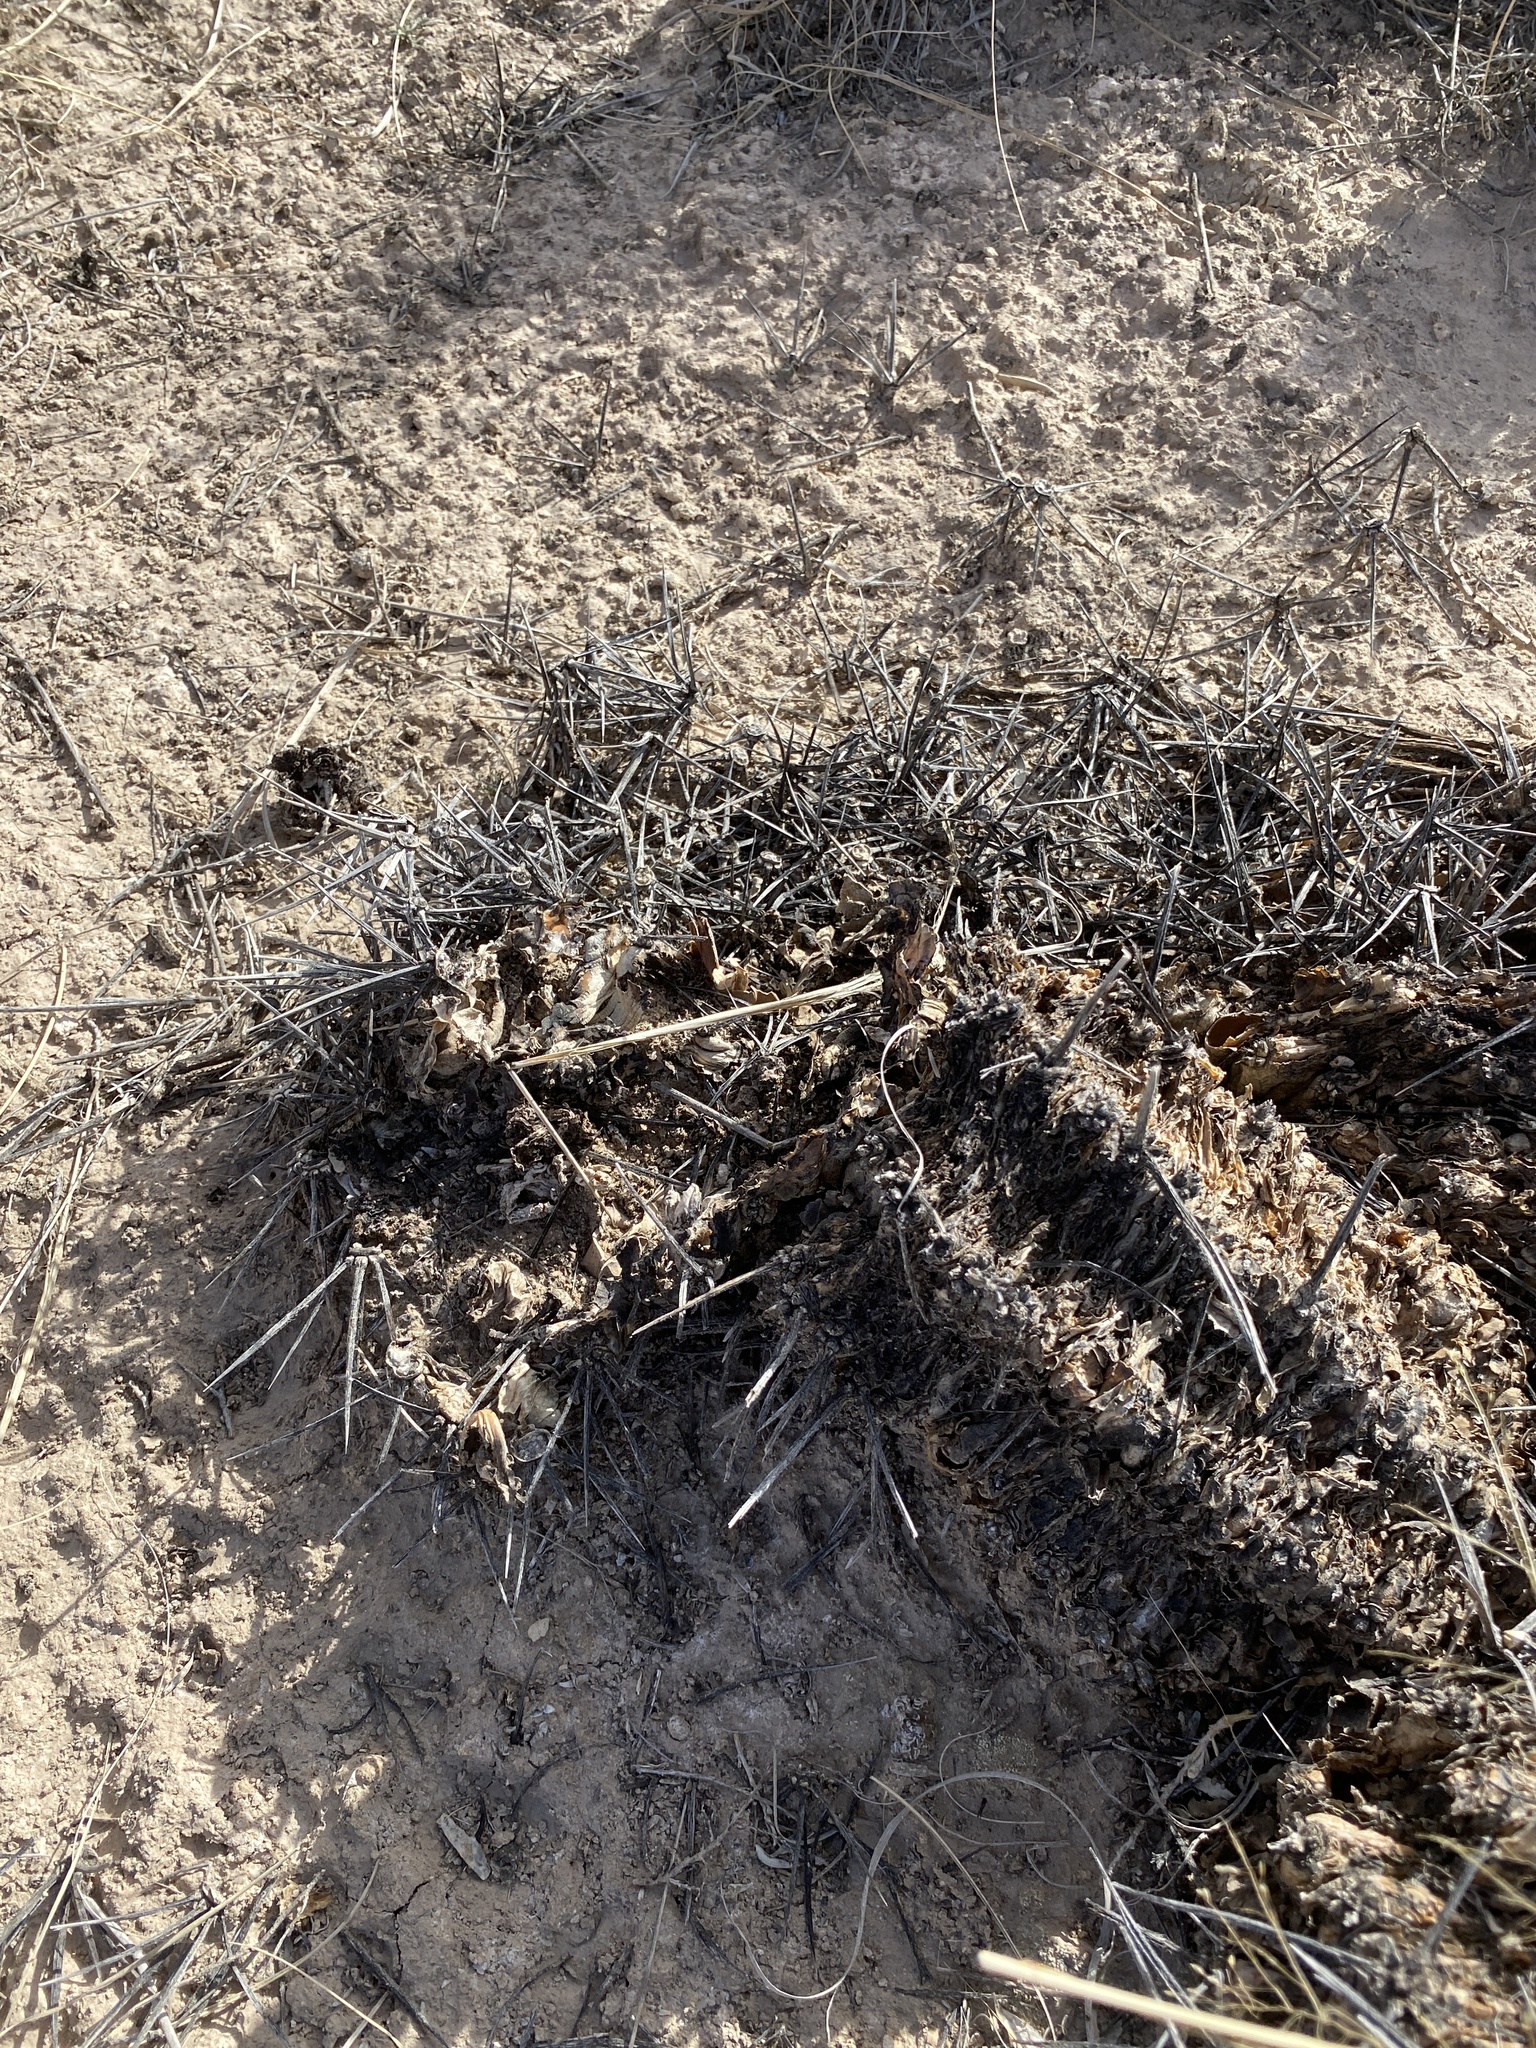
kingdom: Plantae
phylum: Tracheophyta
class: Magnoliopsida
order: Caryophyllales
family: Cactaceae
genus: Echinocereus
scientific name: Echinocereus triglochidiatus
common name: Claretcup hedgehog
